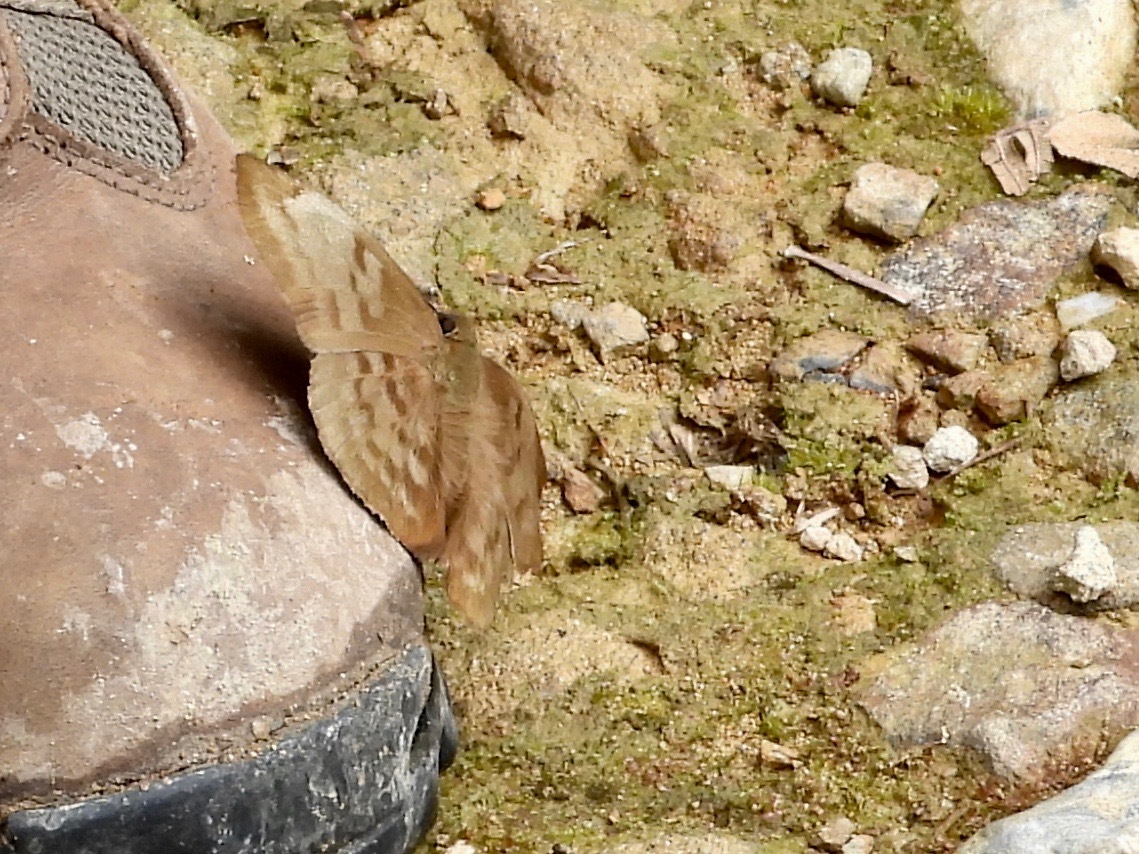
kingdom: Animalia
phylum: Arthropoda
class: Insecta
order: Lepidoptera
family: Hesperiidae
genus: Achlyodes
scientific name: Achlyodes pallida
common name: Pale sicklewing
